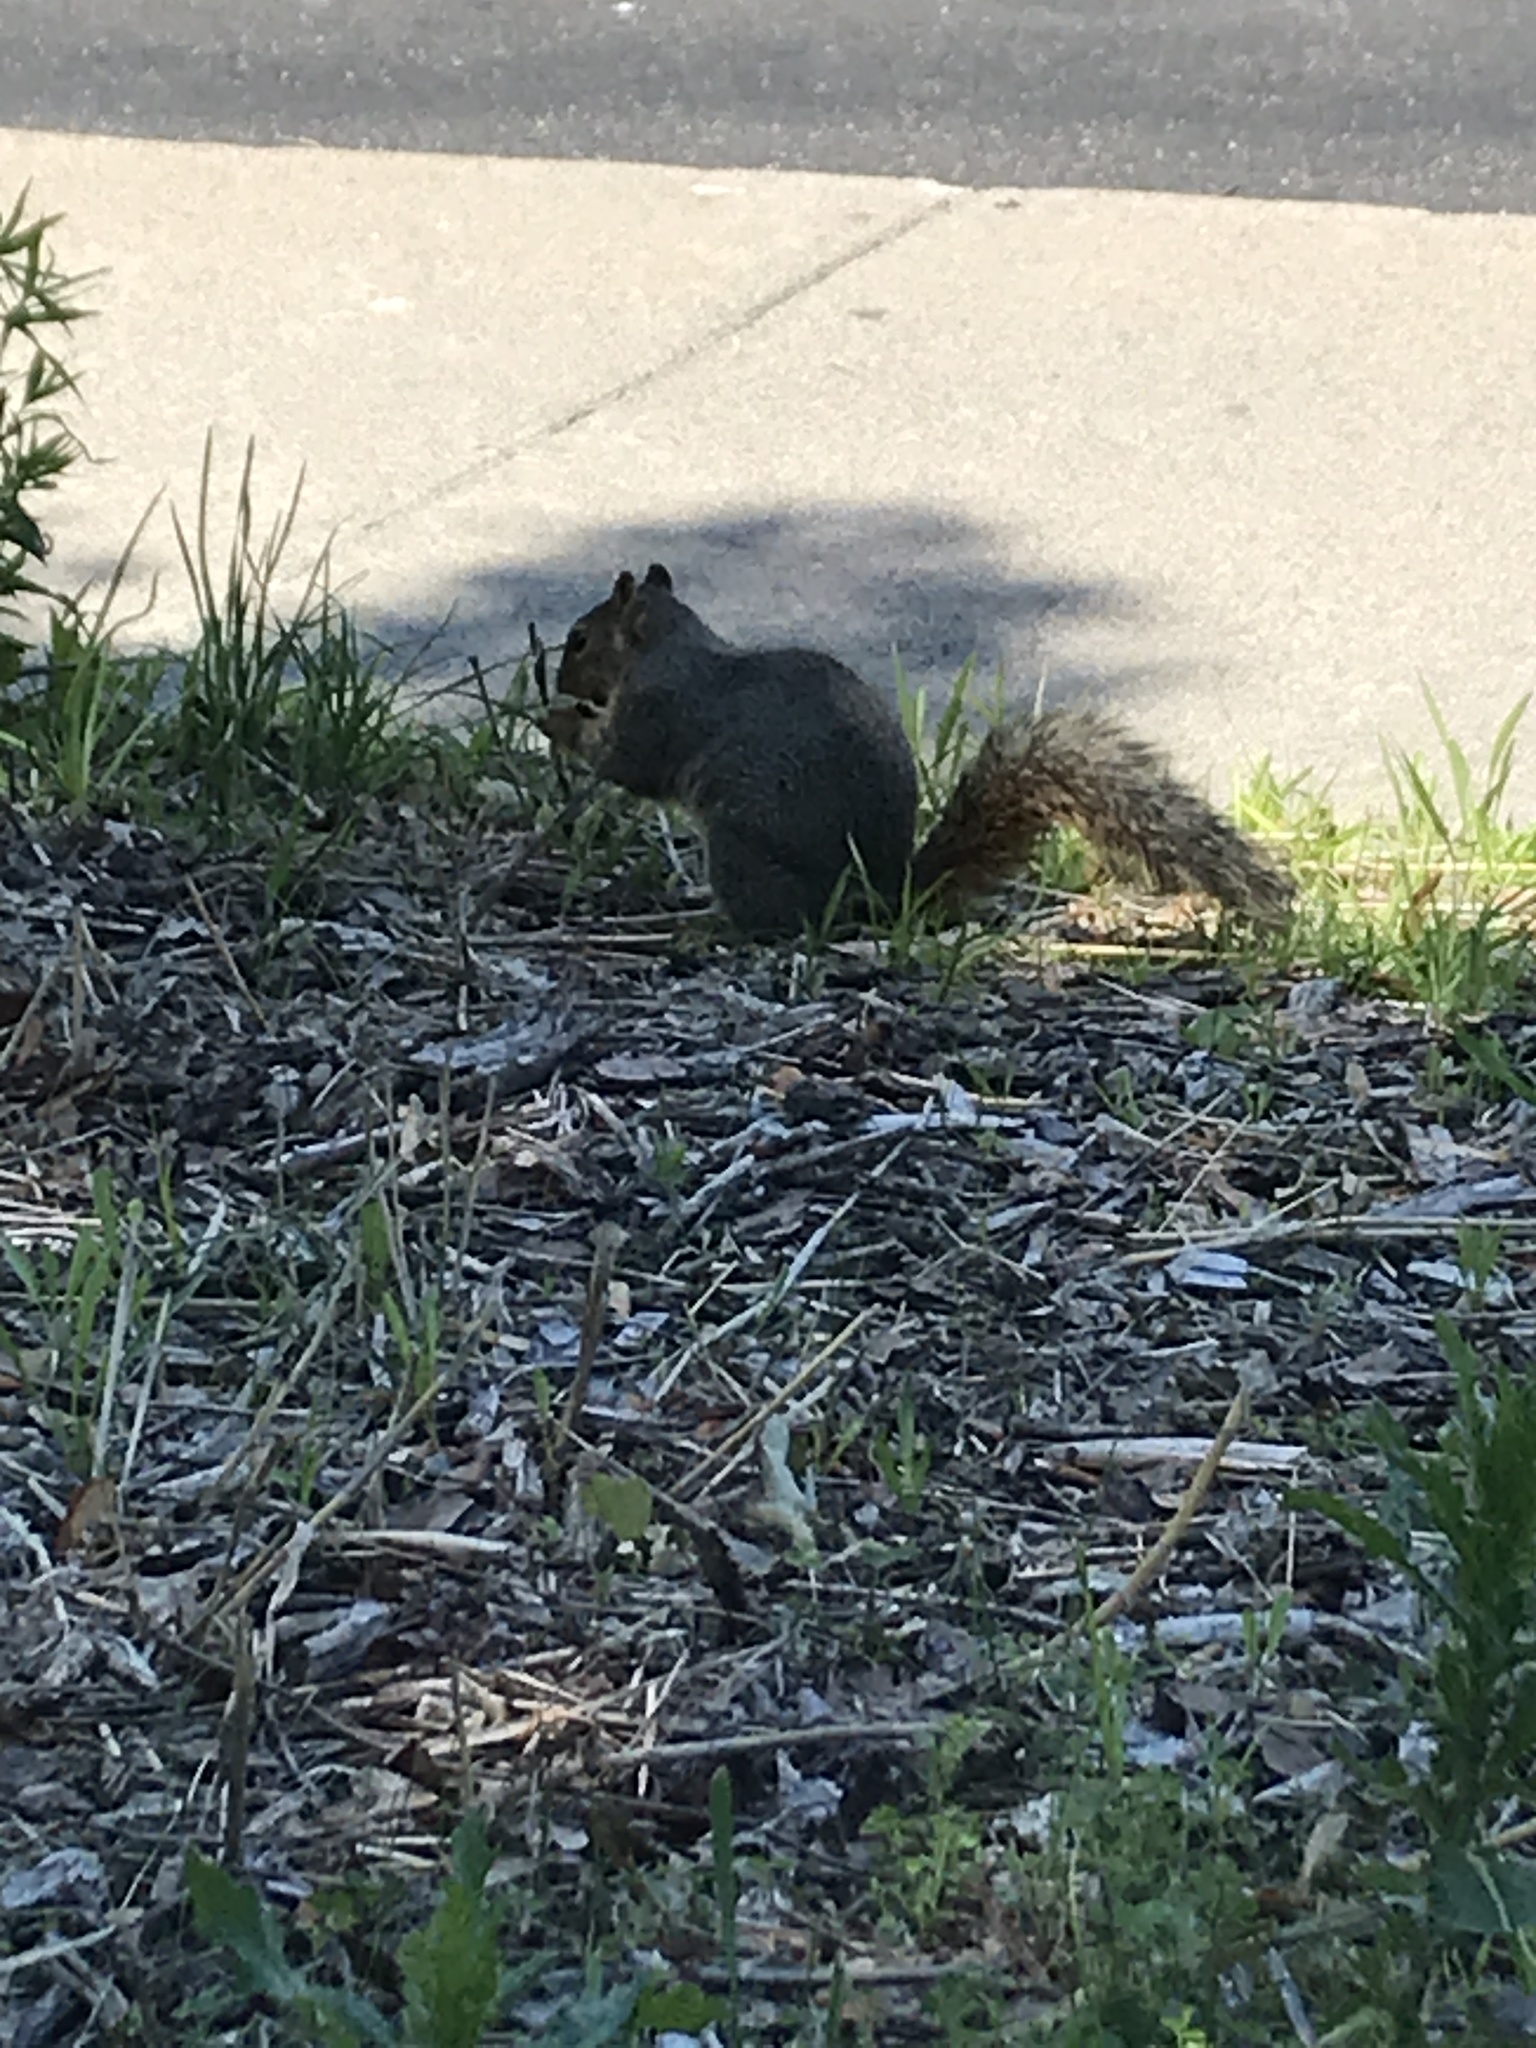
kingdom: Animalia
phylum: Chordata
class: Mammalia
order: Rodentia
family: Sciuridae
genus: Sciurus
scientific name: Sciurus niger
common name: Fox squirrel
